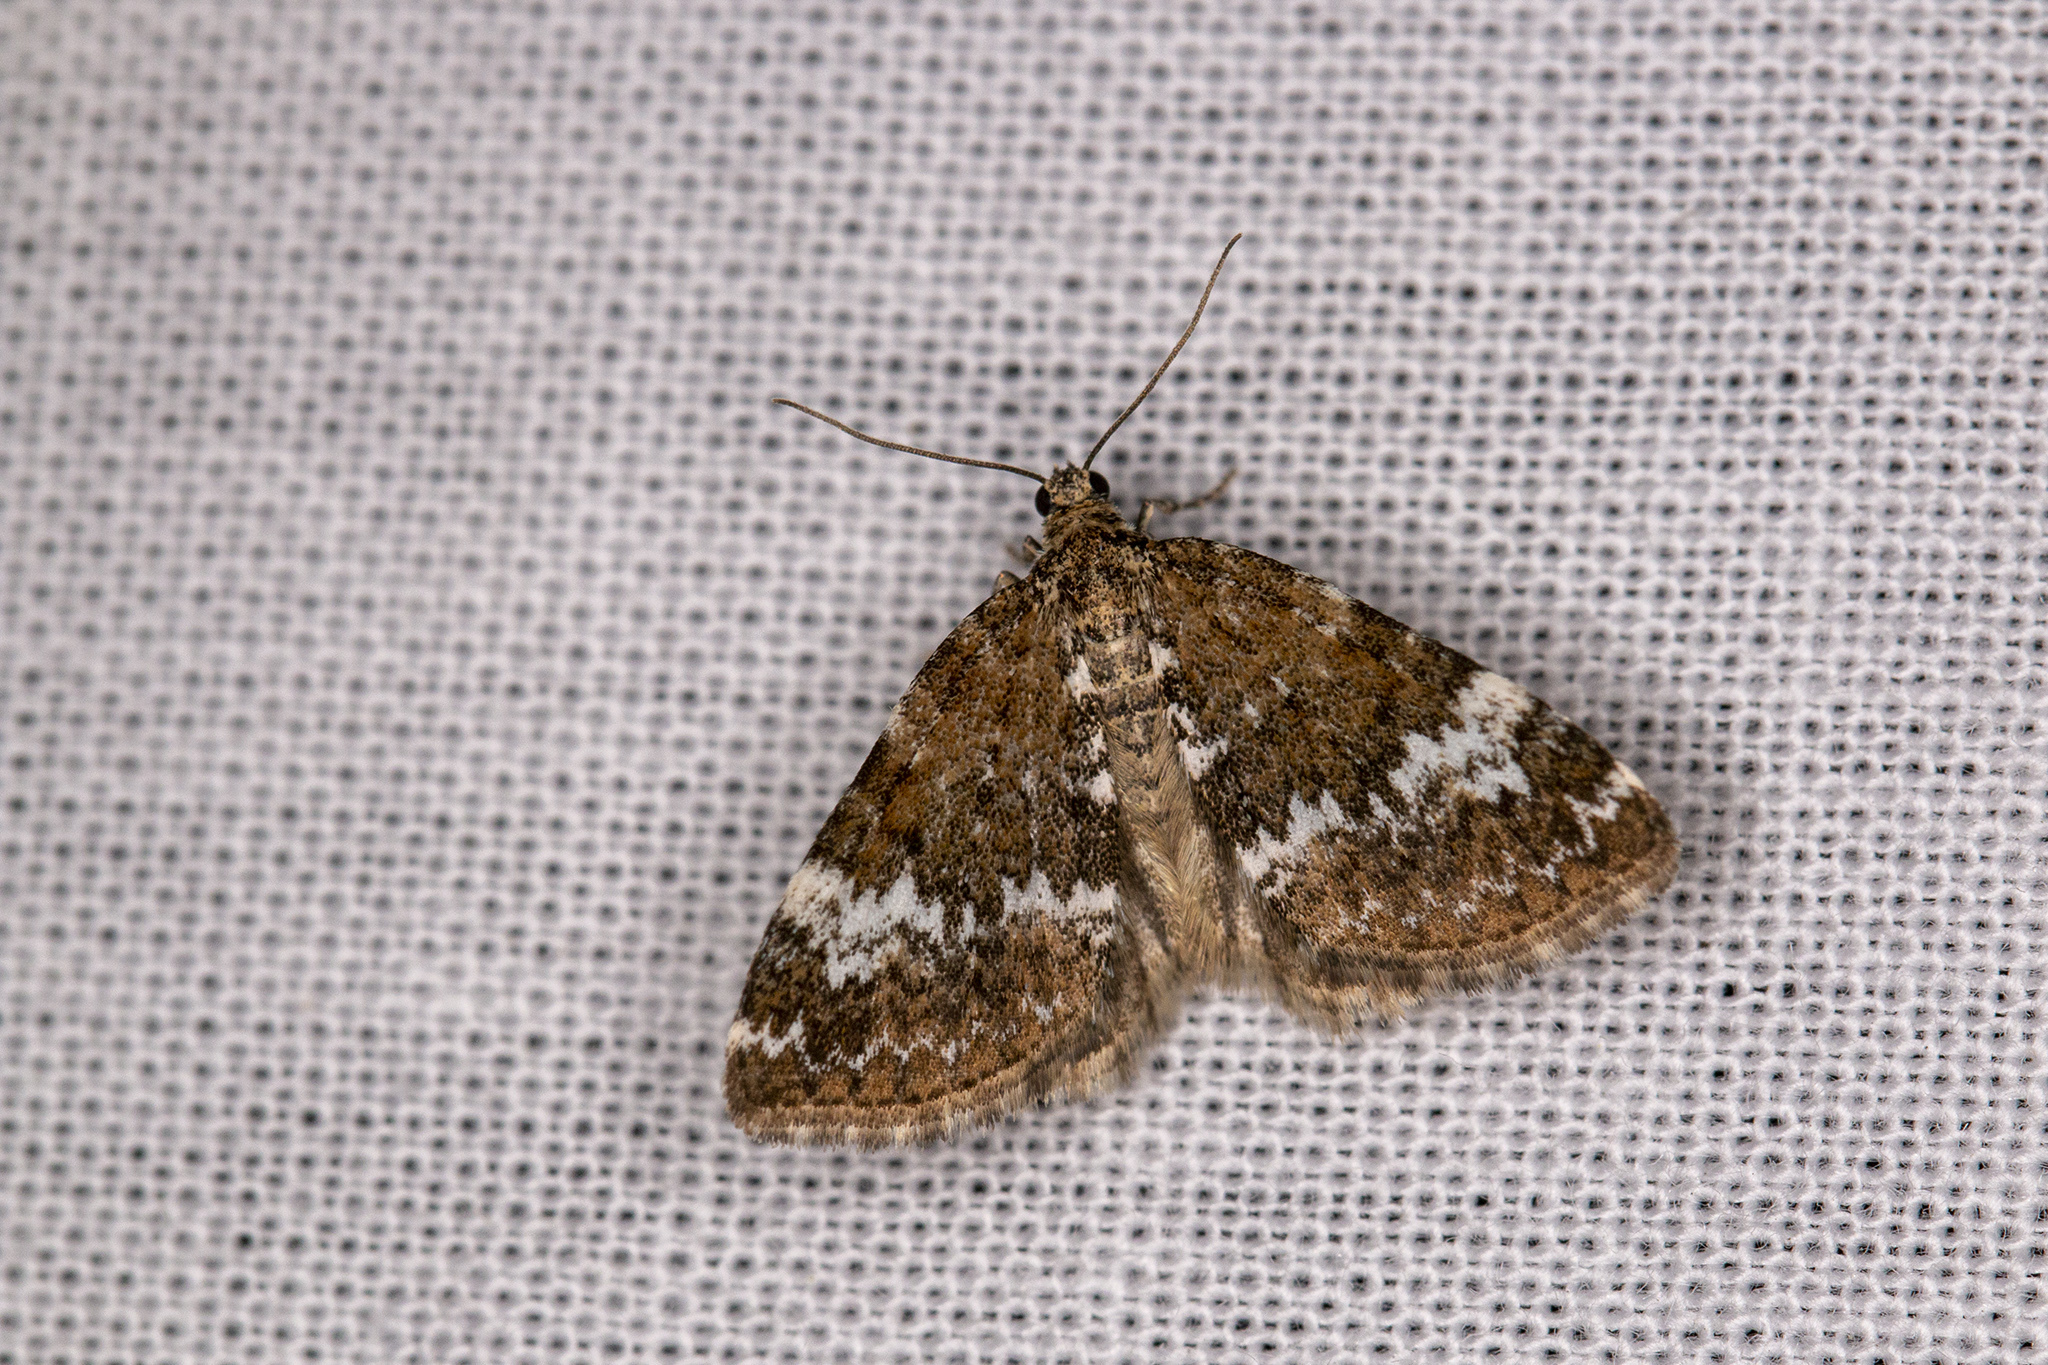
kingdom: Animalia
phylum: Arthropoda
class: Insecta
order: Lepidoptera
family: Geometridae
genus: Perizoma
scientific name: Perizoma alchemillata
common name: Small rivulet
